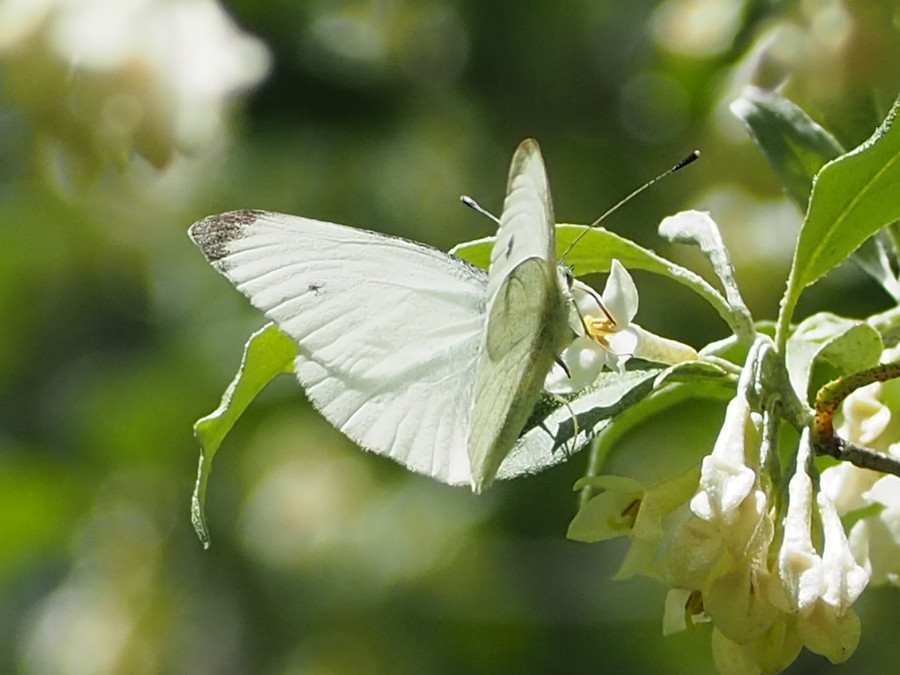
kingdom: Animalia
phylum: Arthropoda
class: Insecta
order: Lepidoptera
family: Pieridae
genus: Pieris
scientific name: Pieris rapae
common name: Small white
